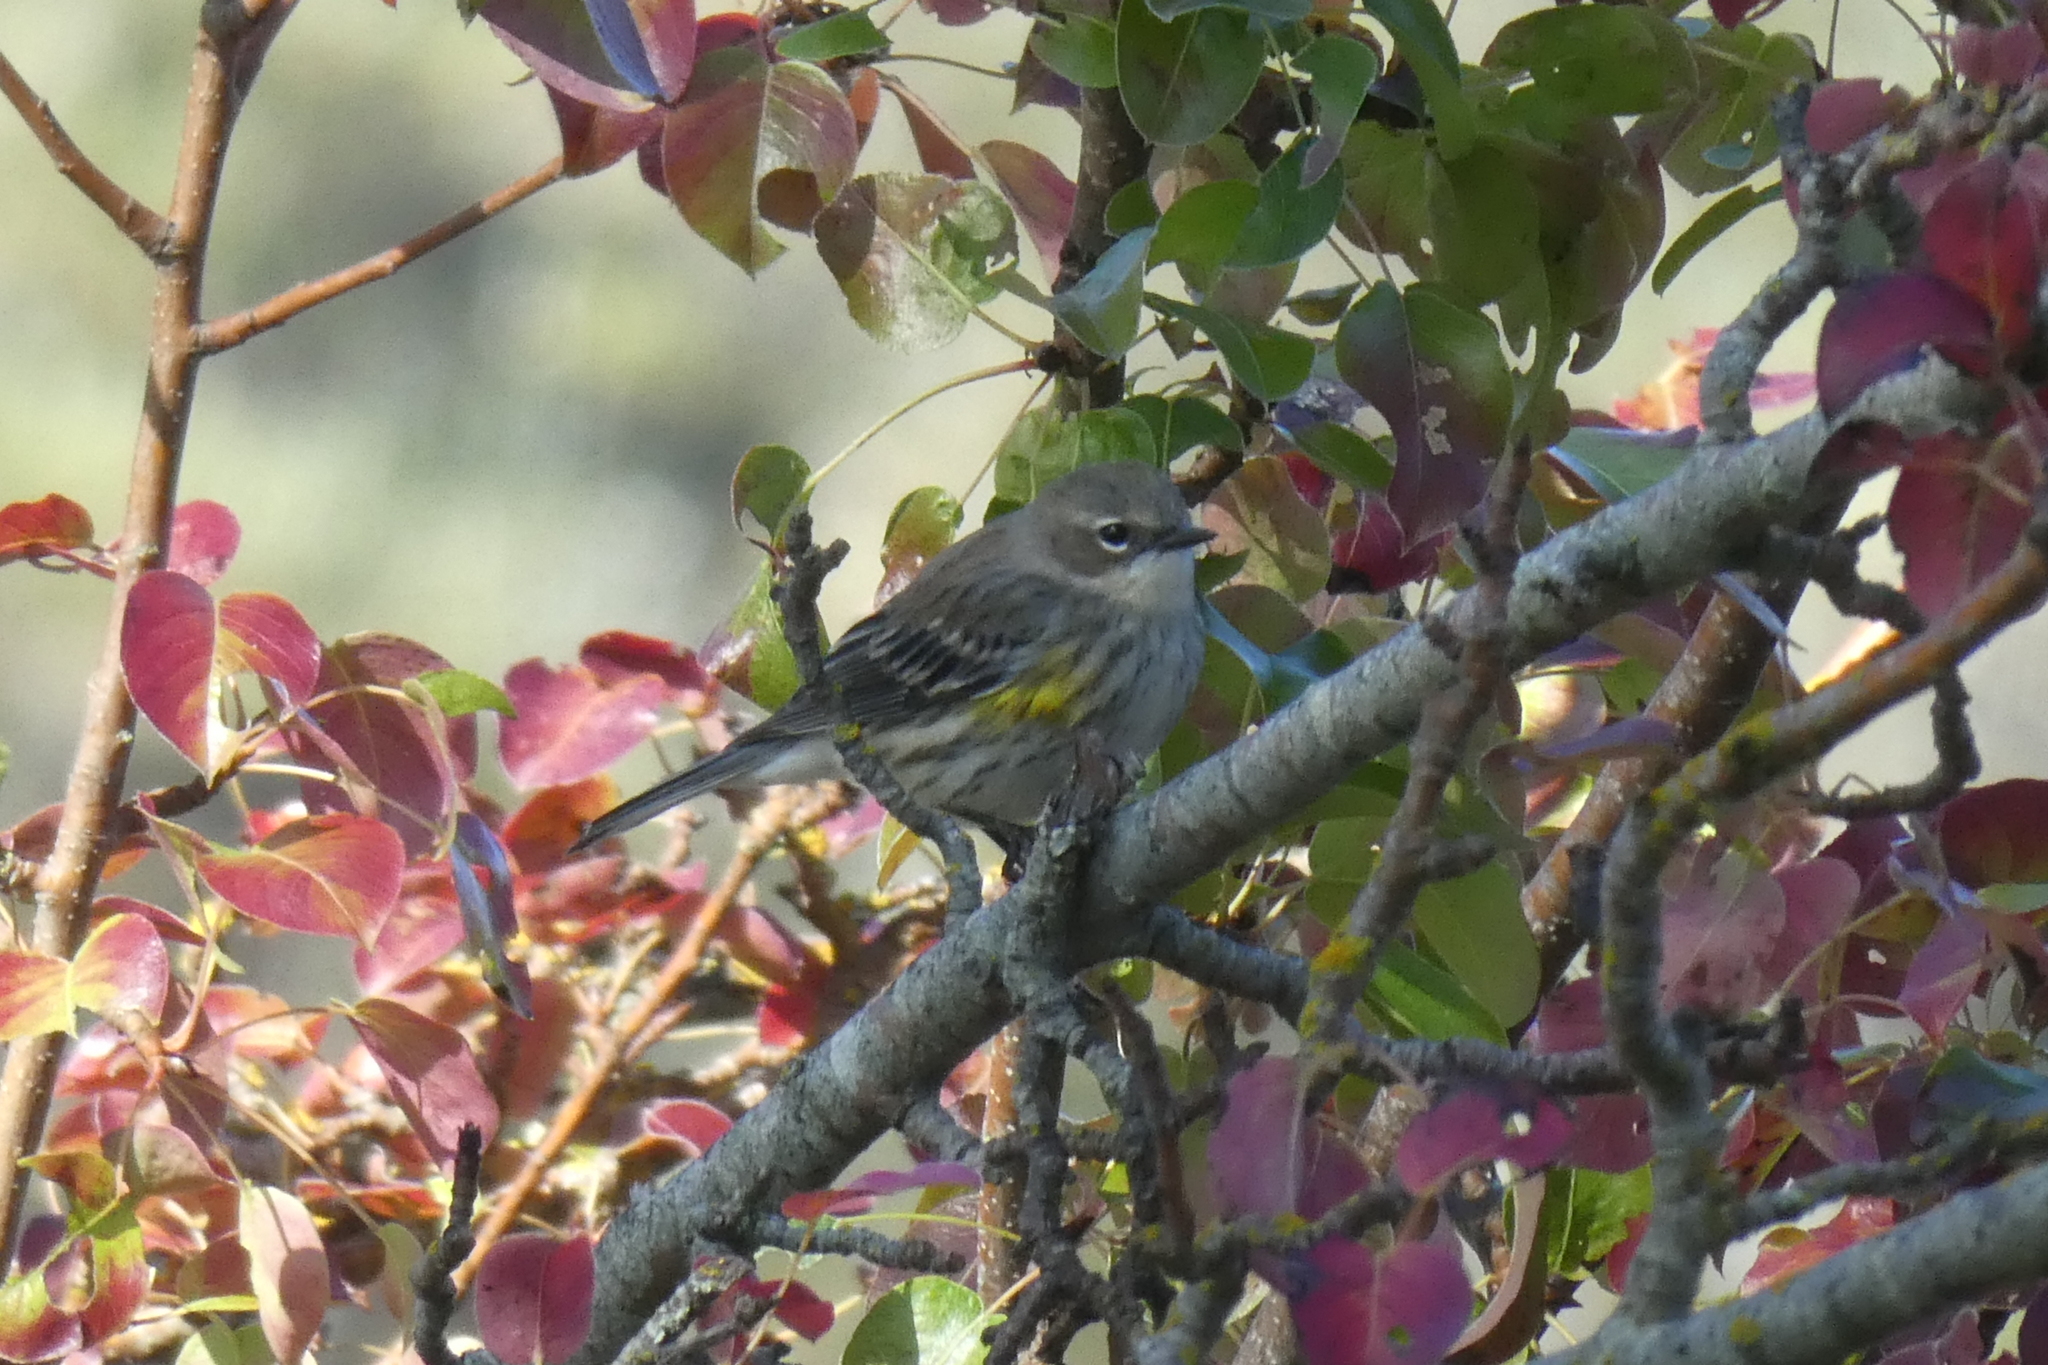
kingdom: Animalia
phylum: Chordata
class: Aves
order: Passeriformes
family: Parulidae
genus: Setophaga
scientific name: Setophaga coronata
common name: Myrtle warbler
